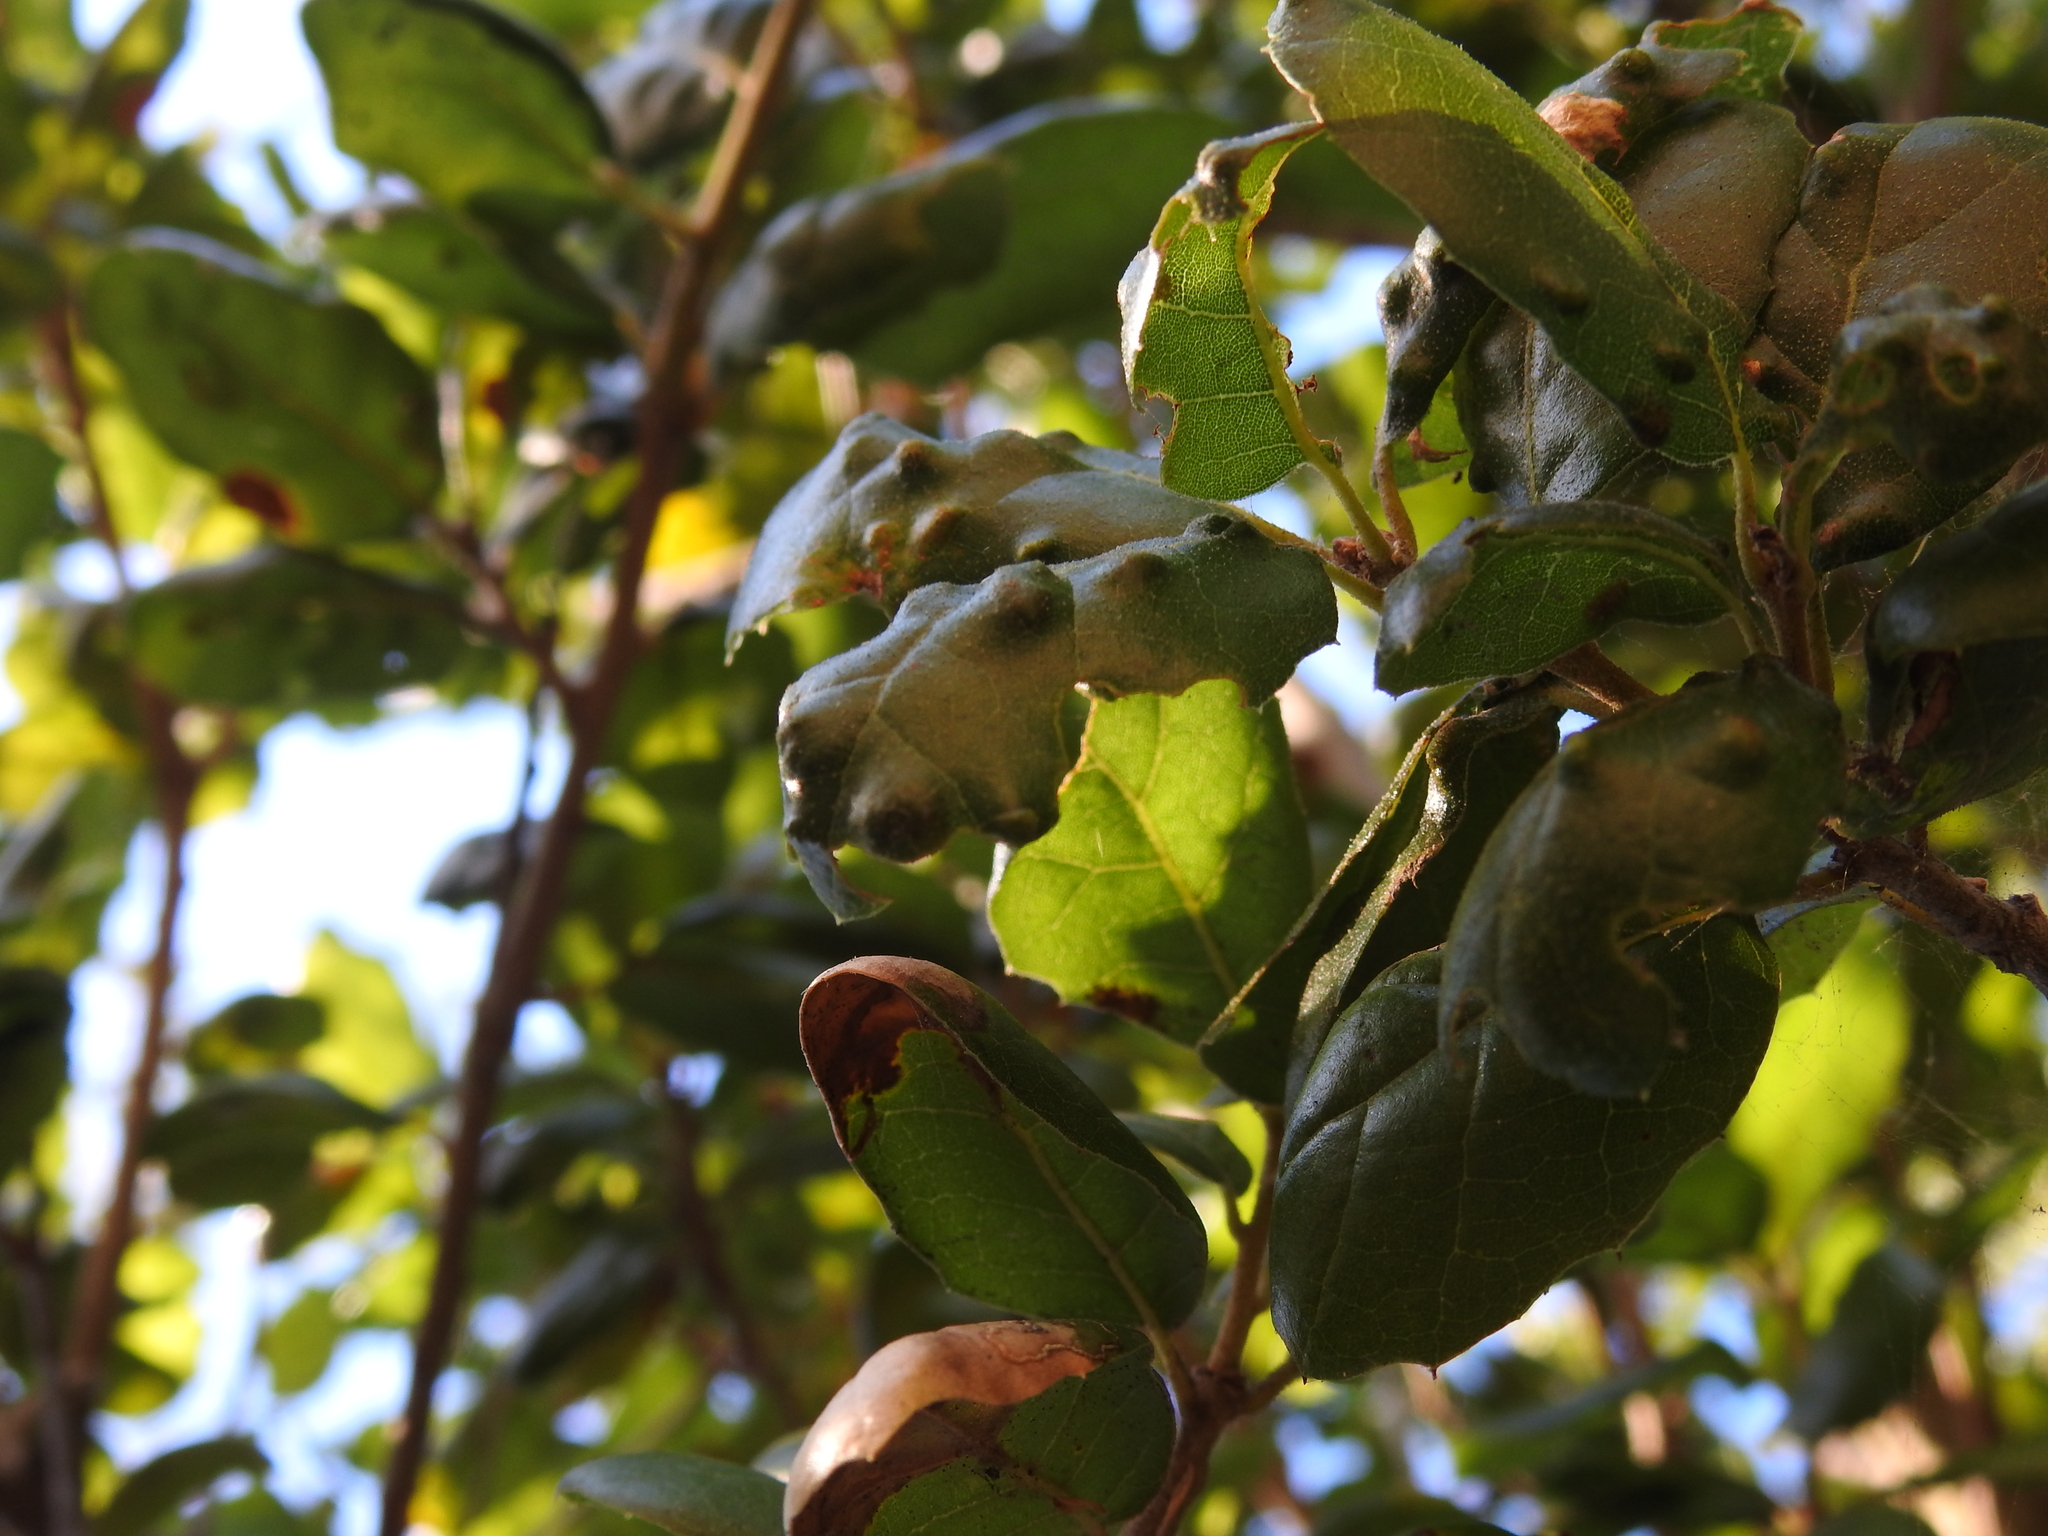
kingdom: Animalia
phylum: Arthropoda
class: Arachnida
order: Trombidiformes
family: Eriophyidae
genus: Aceria
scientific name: Aceria
